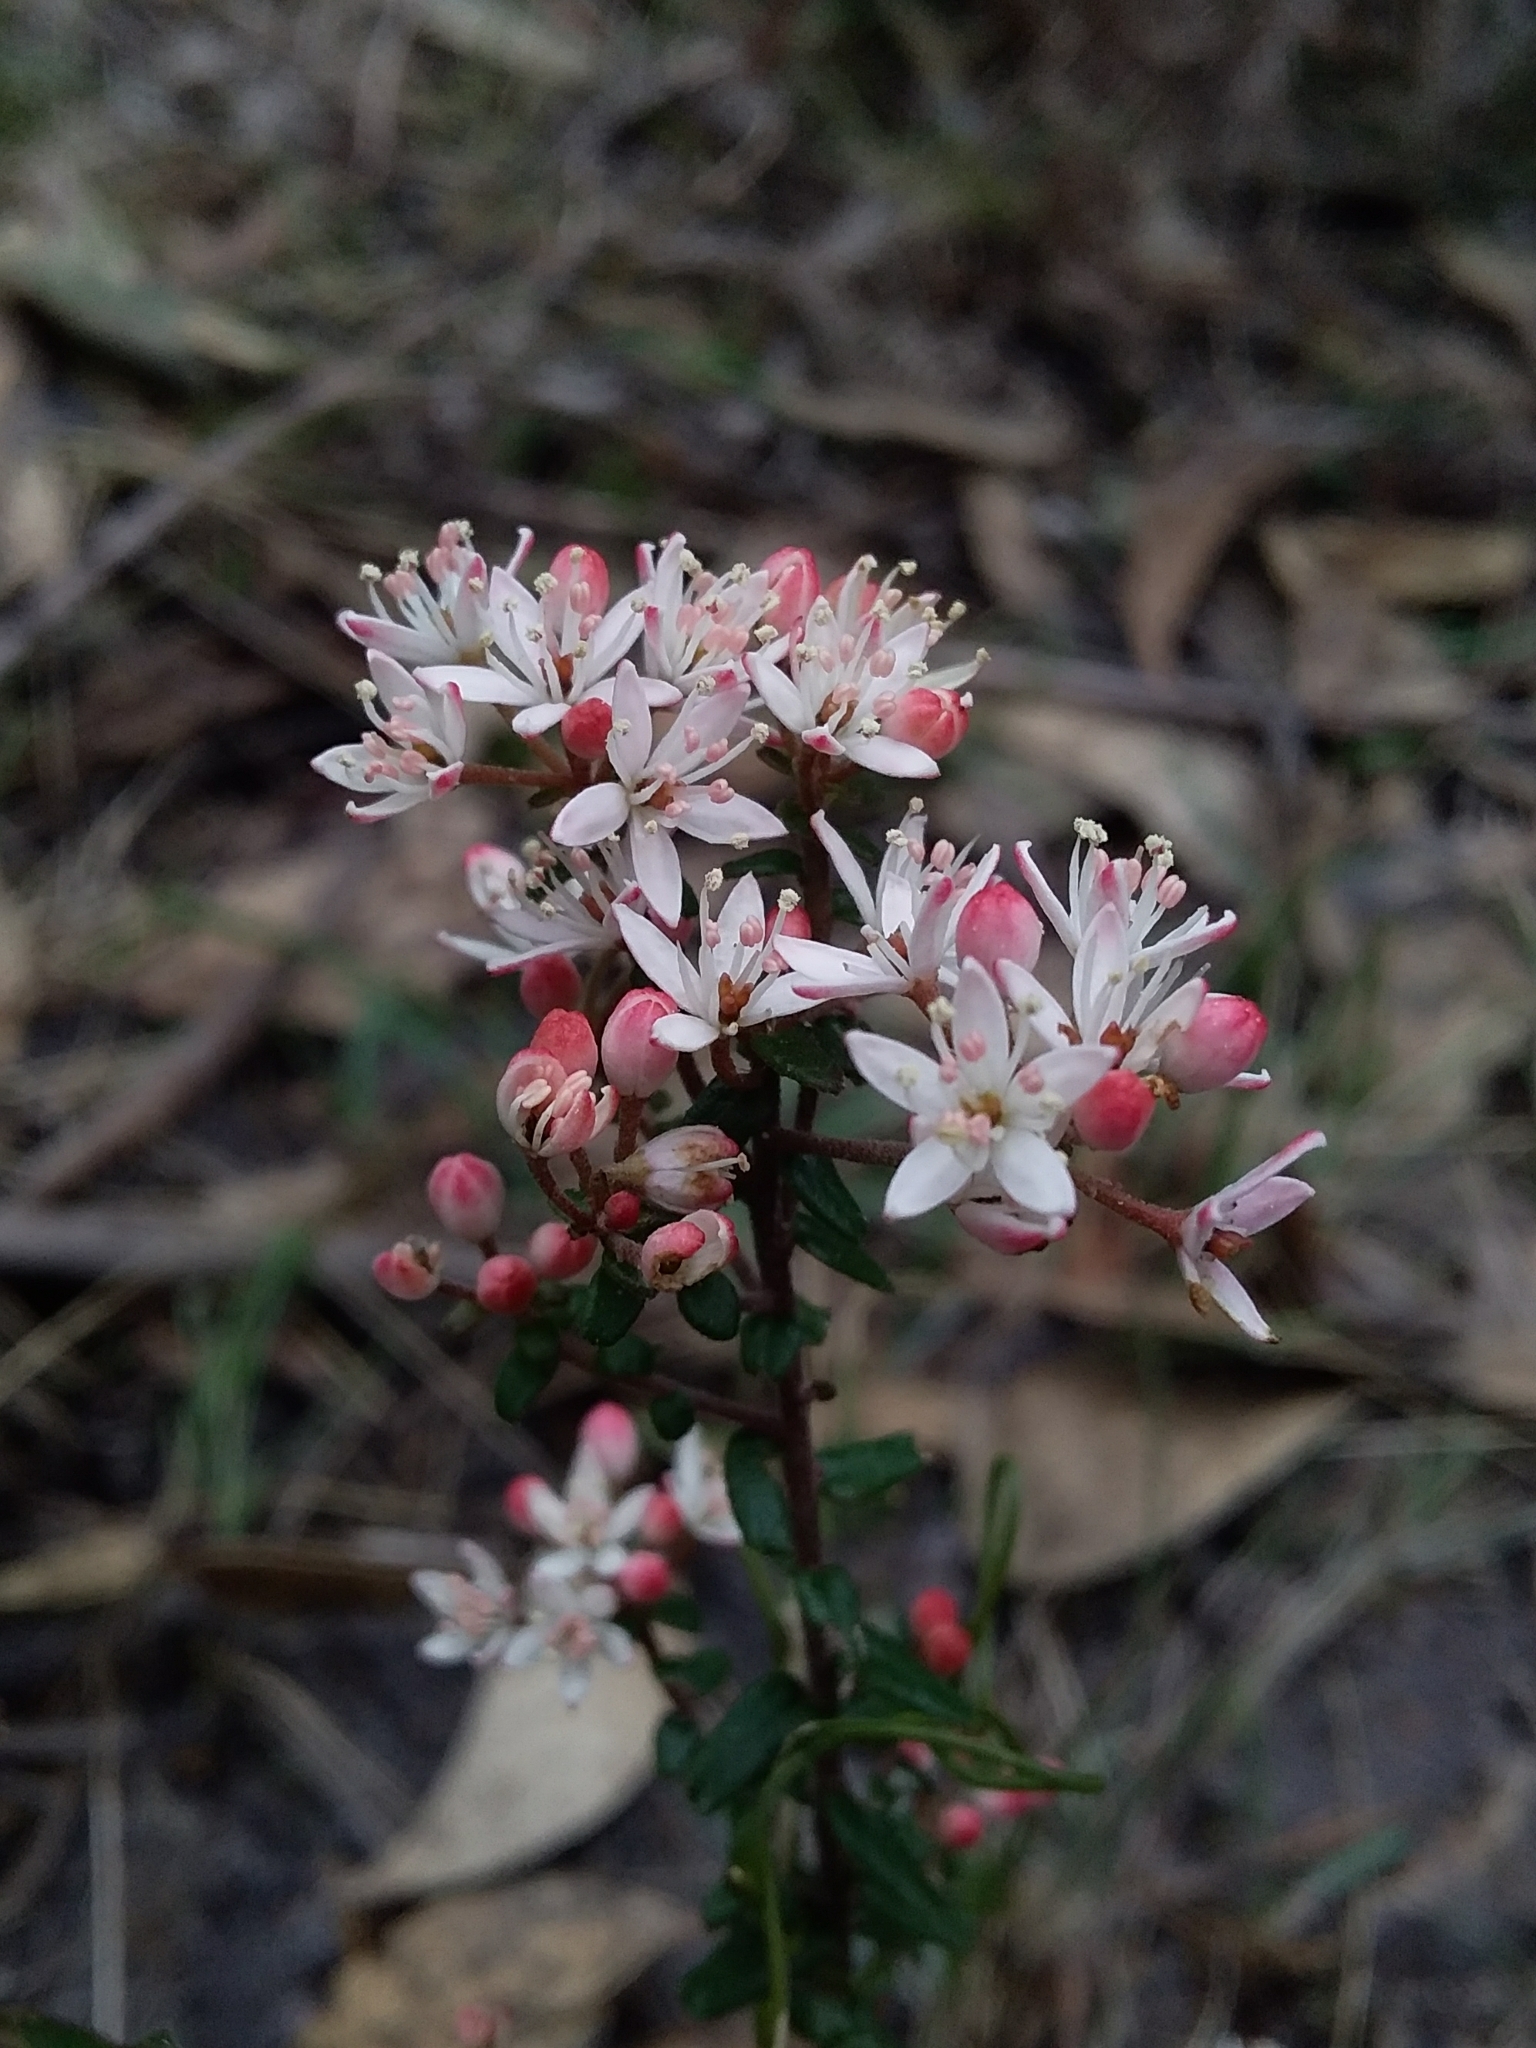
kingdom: Plantae
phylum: Tracheophyta
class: Magnoliopsida
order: Sapindales
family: Rutaceae
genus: Leionema
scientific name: Leionema hillebrandii
